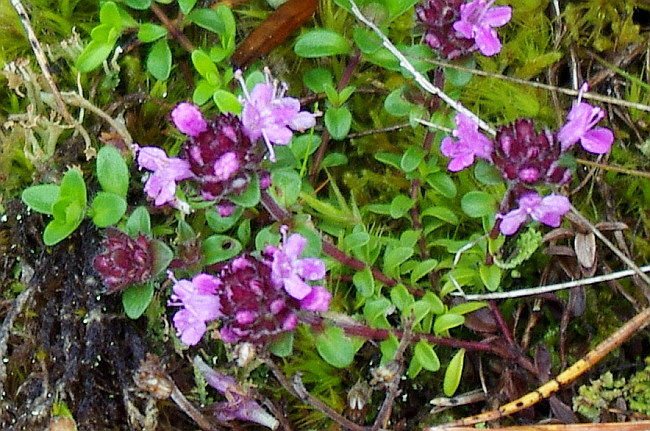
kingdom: Plantae
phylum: Tracheophyta
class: Magnoliopsida
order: Lamiales
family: Lamiaceae
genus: Thymus
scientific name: Thymus serpyllum
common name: Breckland thyme
